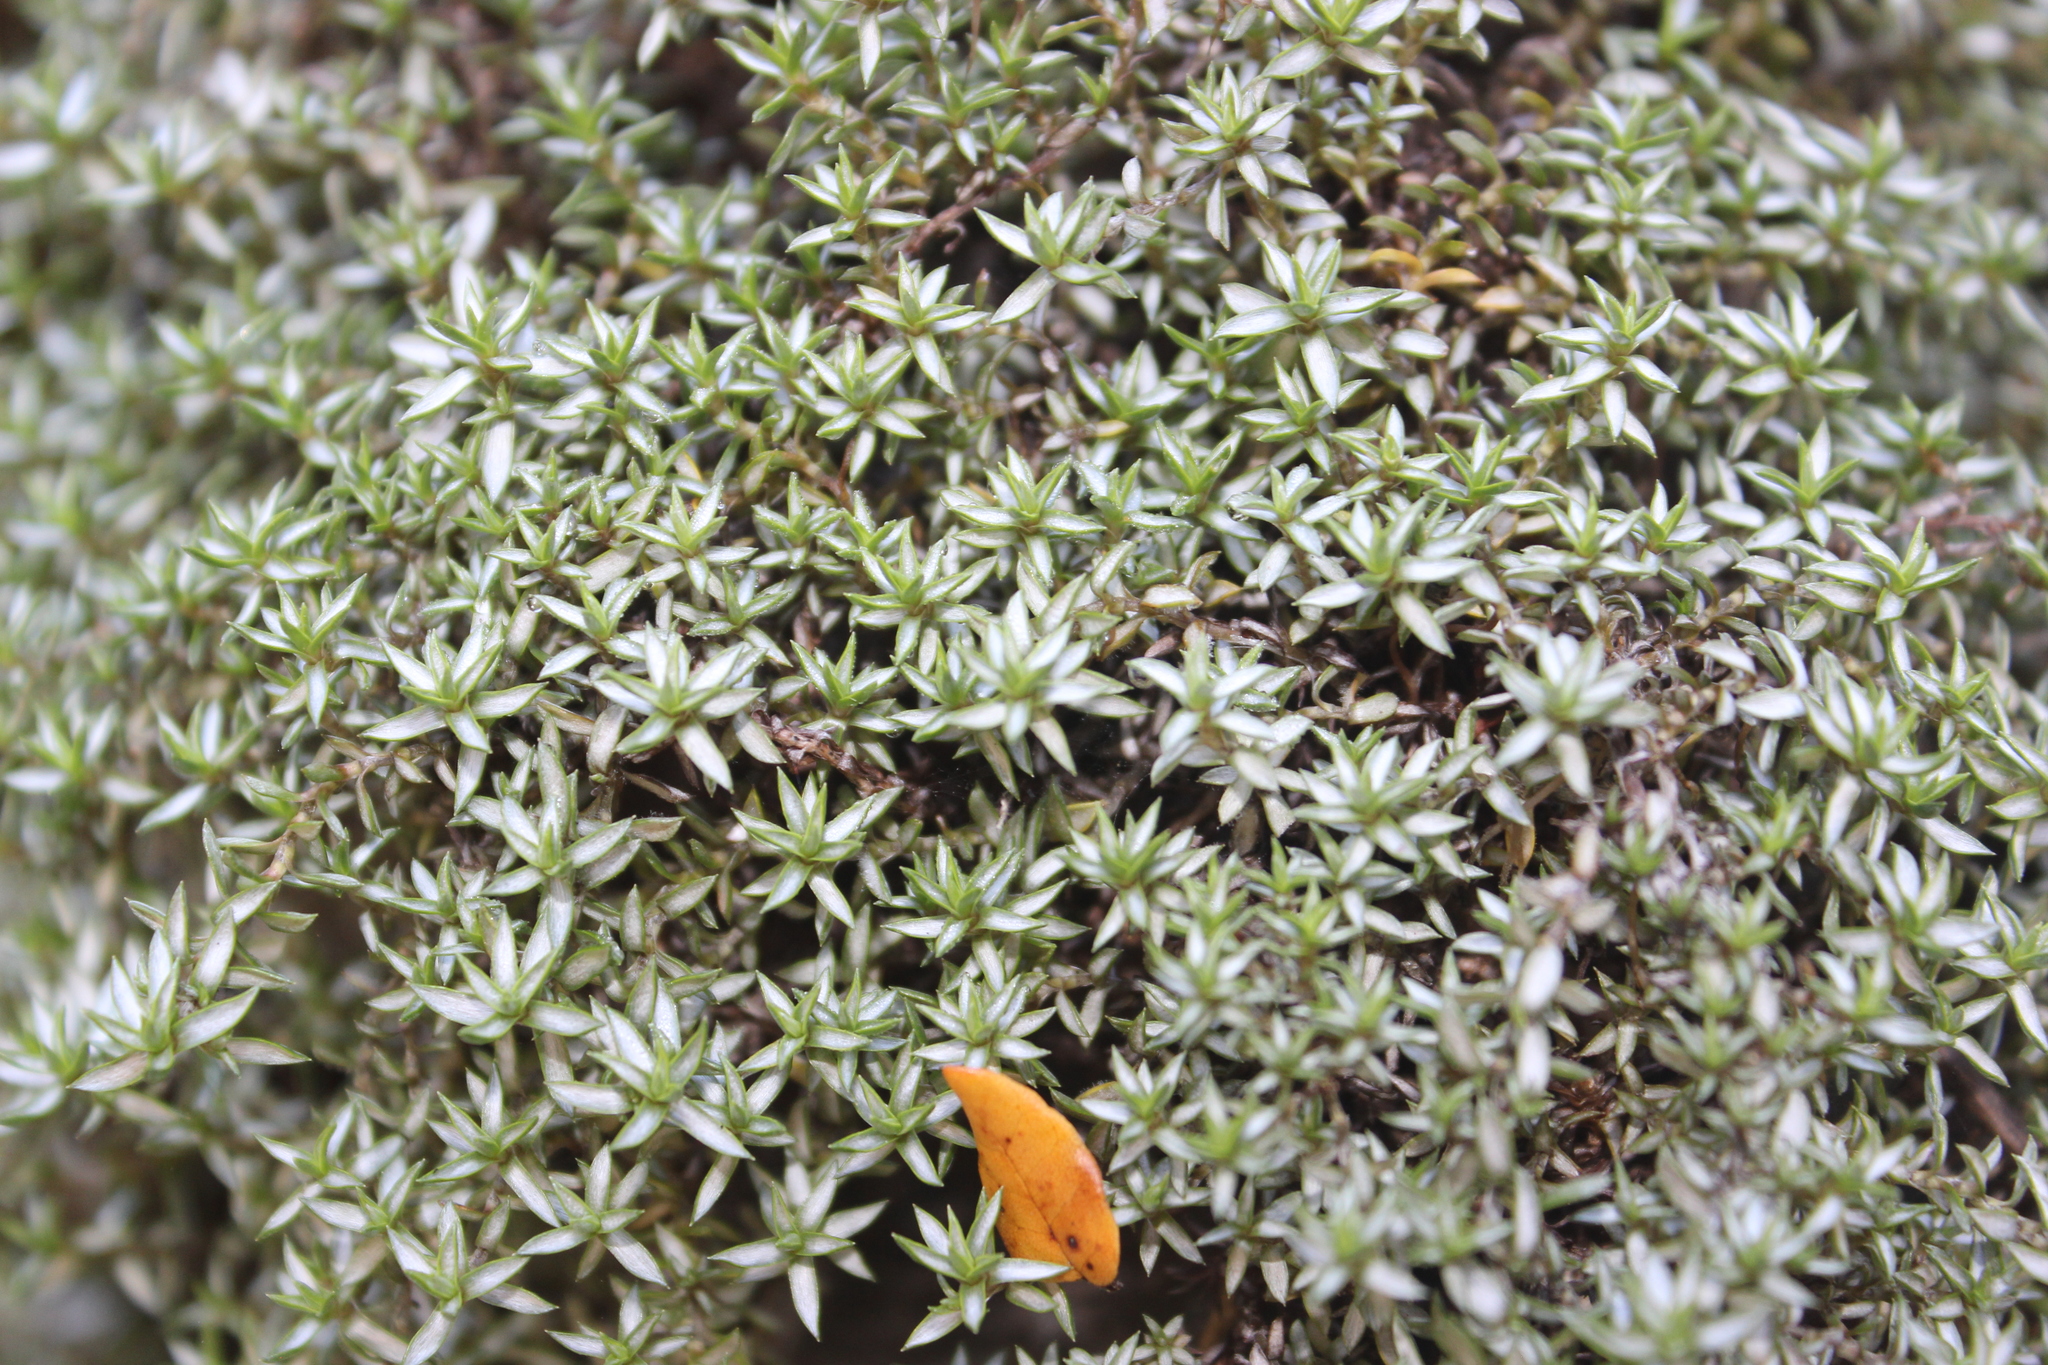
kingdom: Plantae
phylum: Tracheophyta
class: Magnoliopsida
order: Asterales
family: Asteraceae
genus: Raoulia
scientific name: Raoulia tenuicaulis
